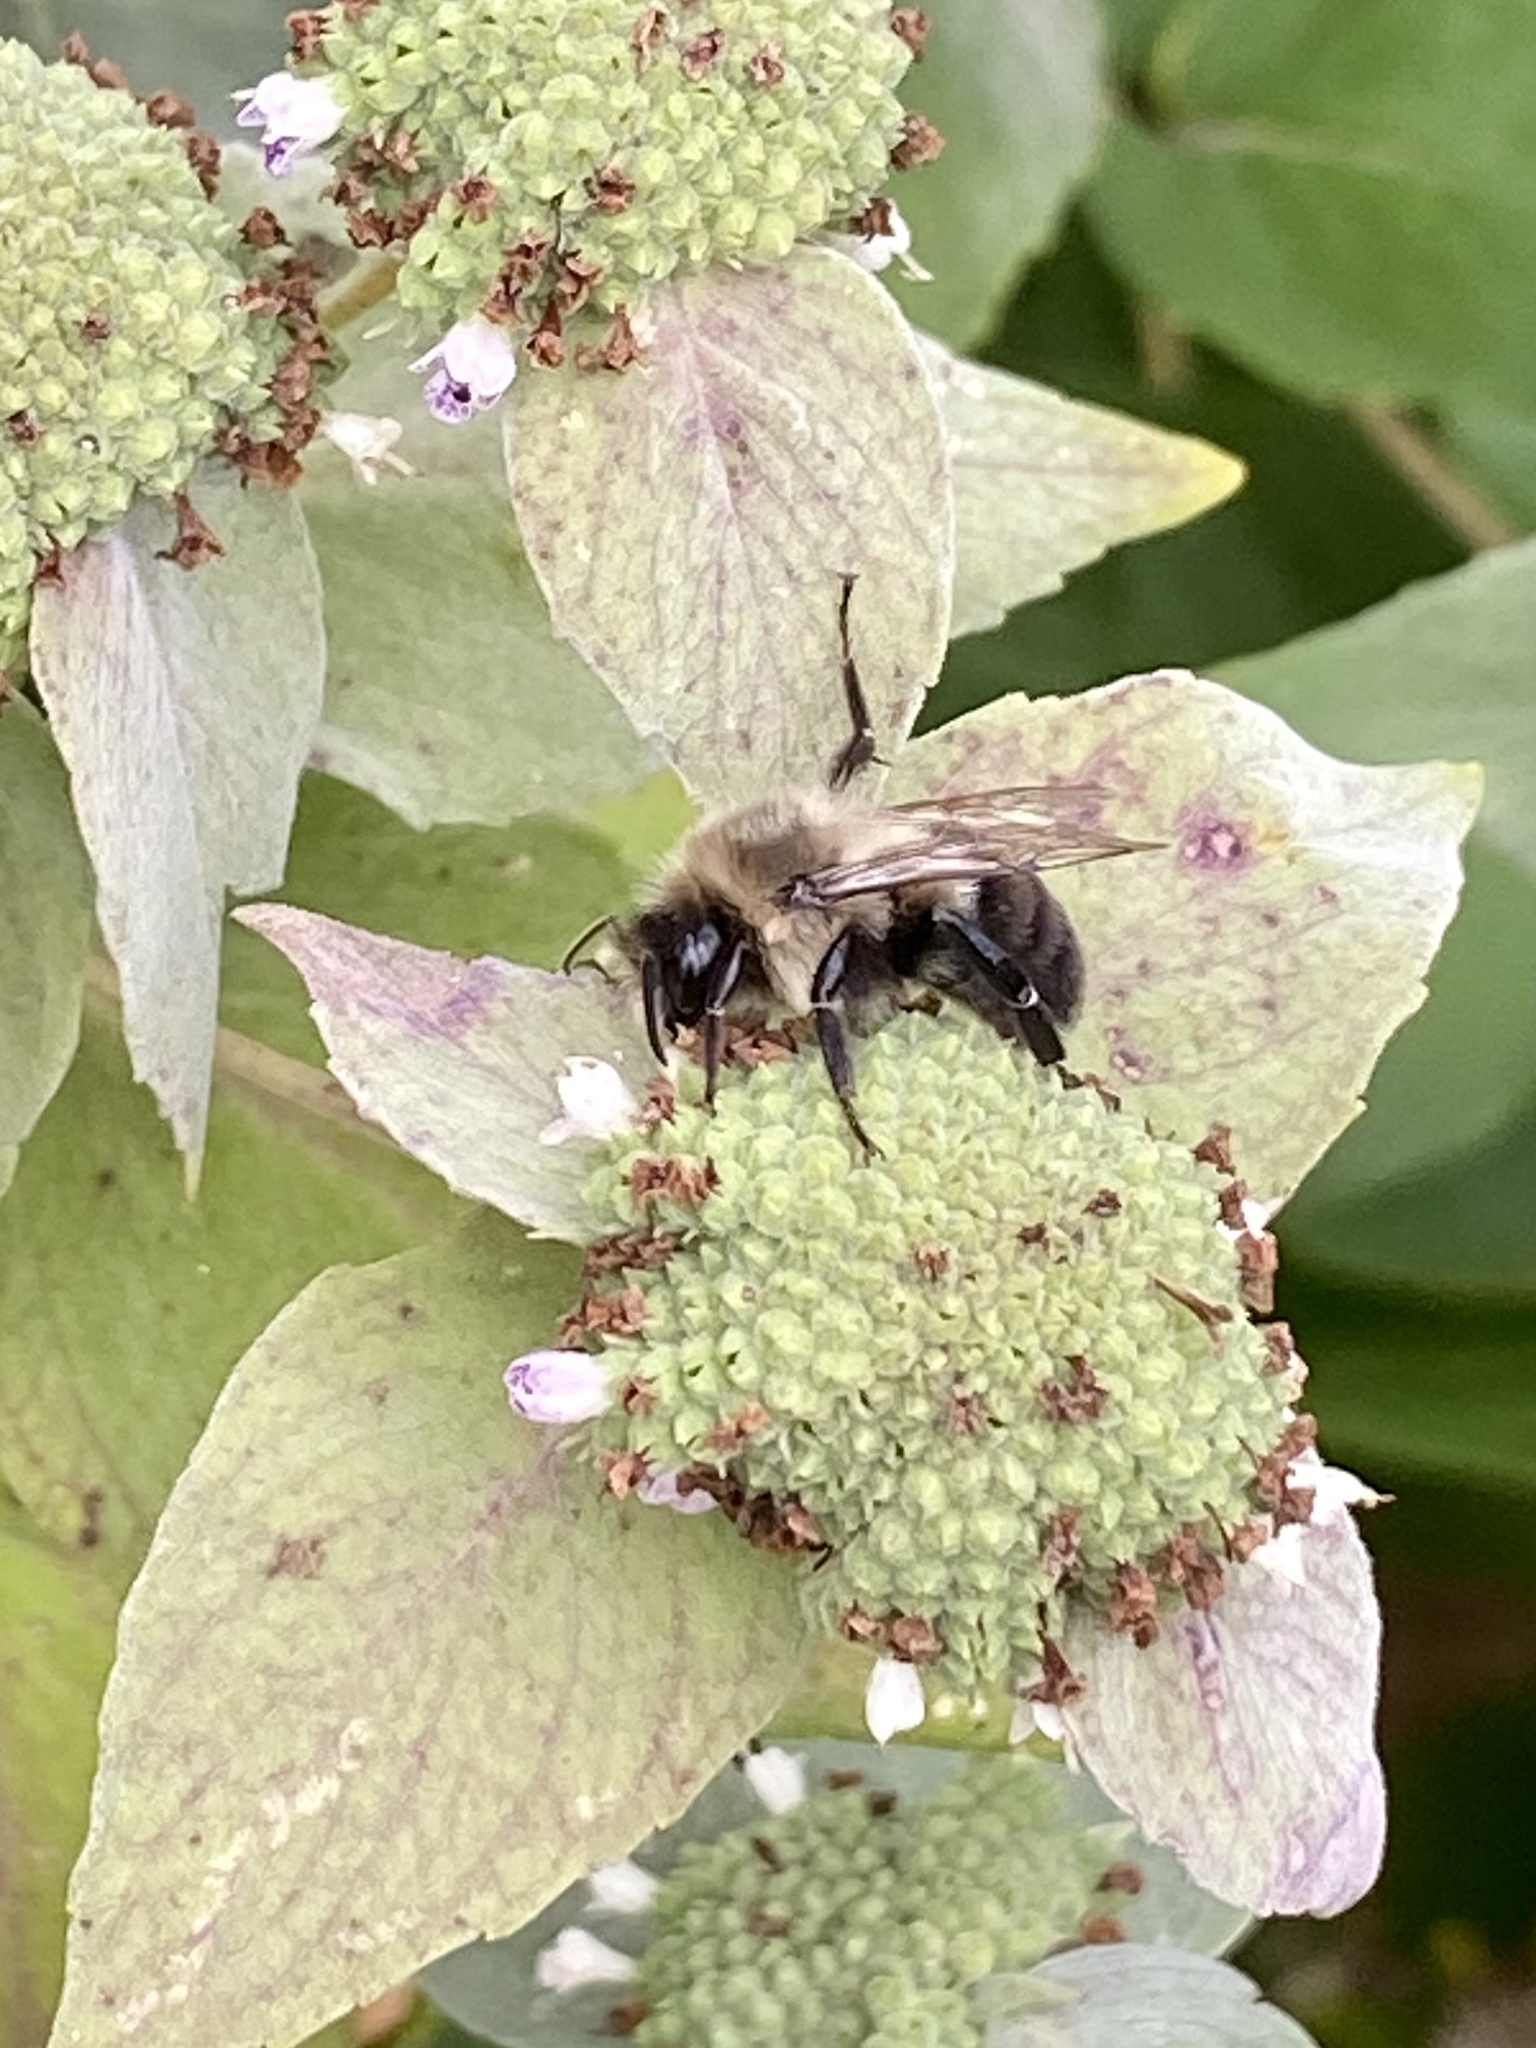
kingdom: Animalia
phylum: Arthropoda
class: Insecta
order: Hymenoptera
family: Apidae
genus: Bombus
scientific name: Bombus impatiens
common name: Common eastern bumble bee
